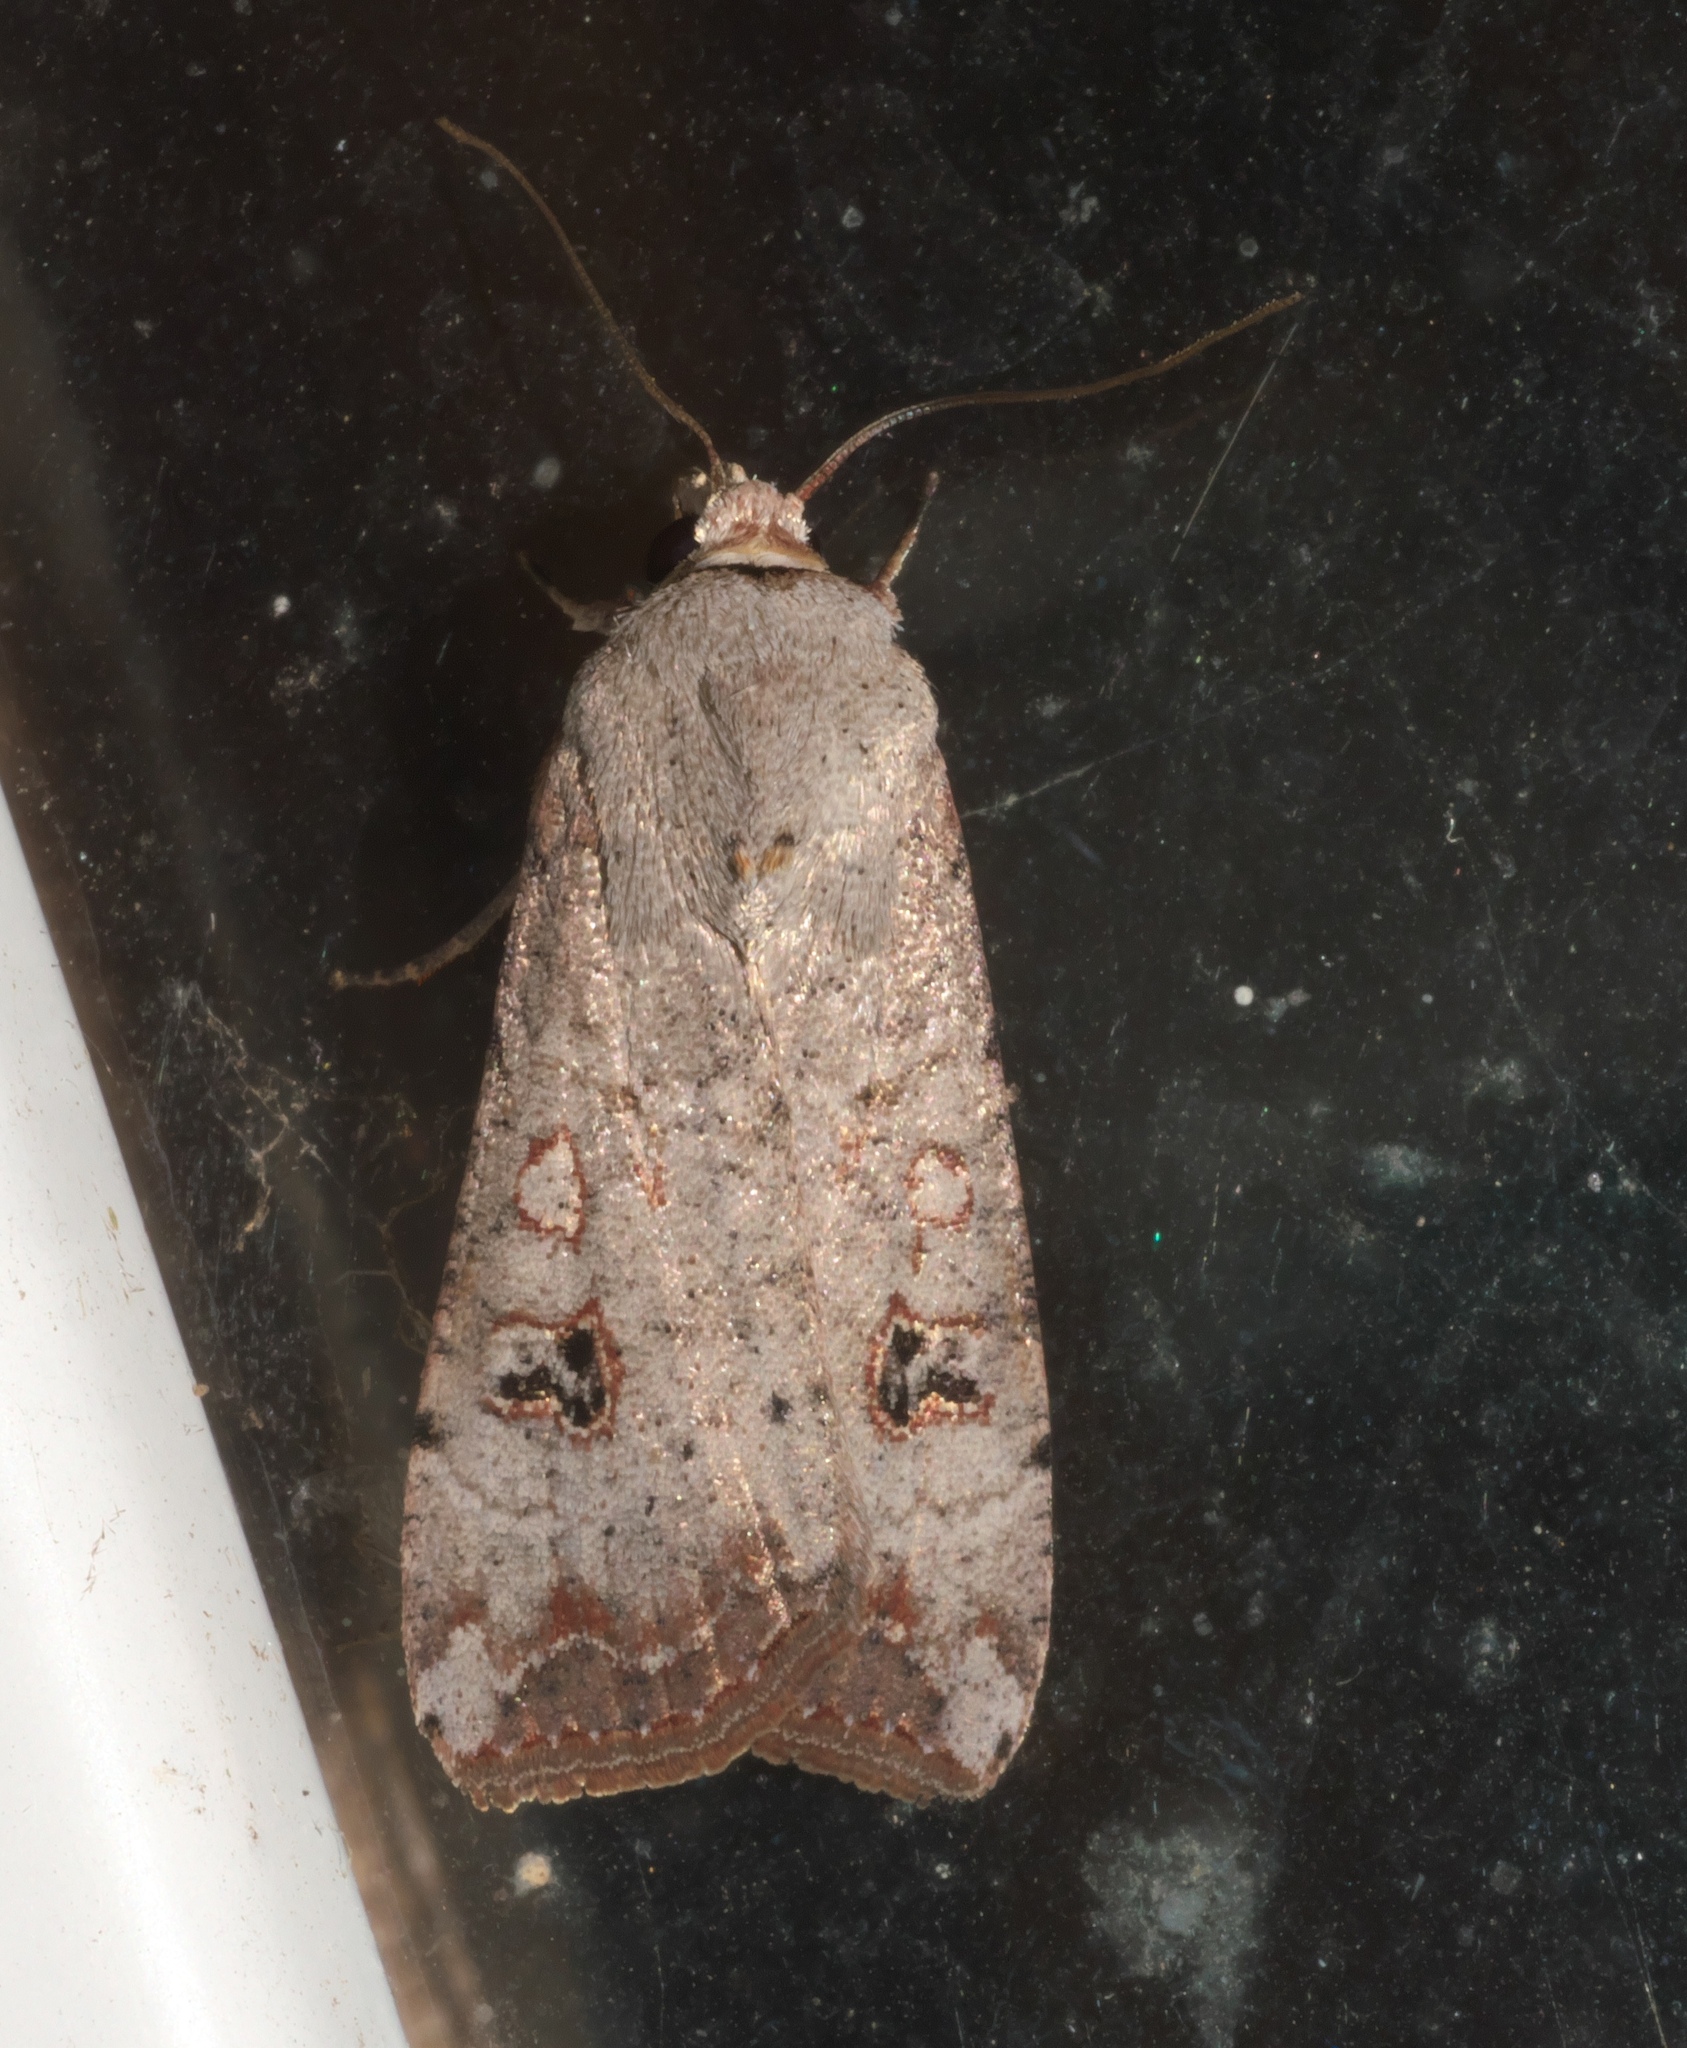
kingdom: Animalia
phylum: Arthropoda
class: Insecta
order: Lepidoptera
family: Noctuidae
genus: Anicla
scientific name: Anicla infecta
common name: Green cutworm
